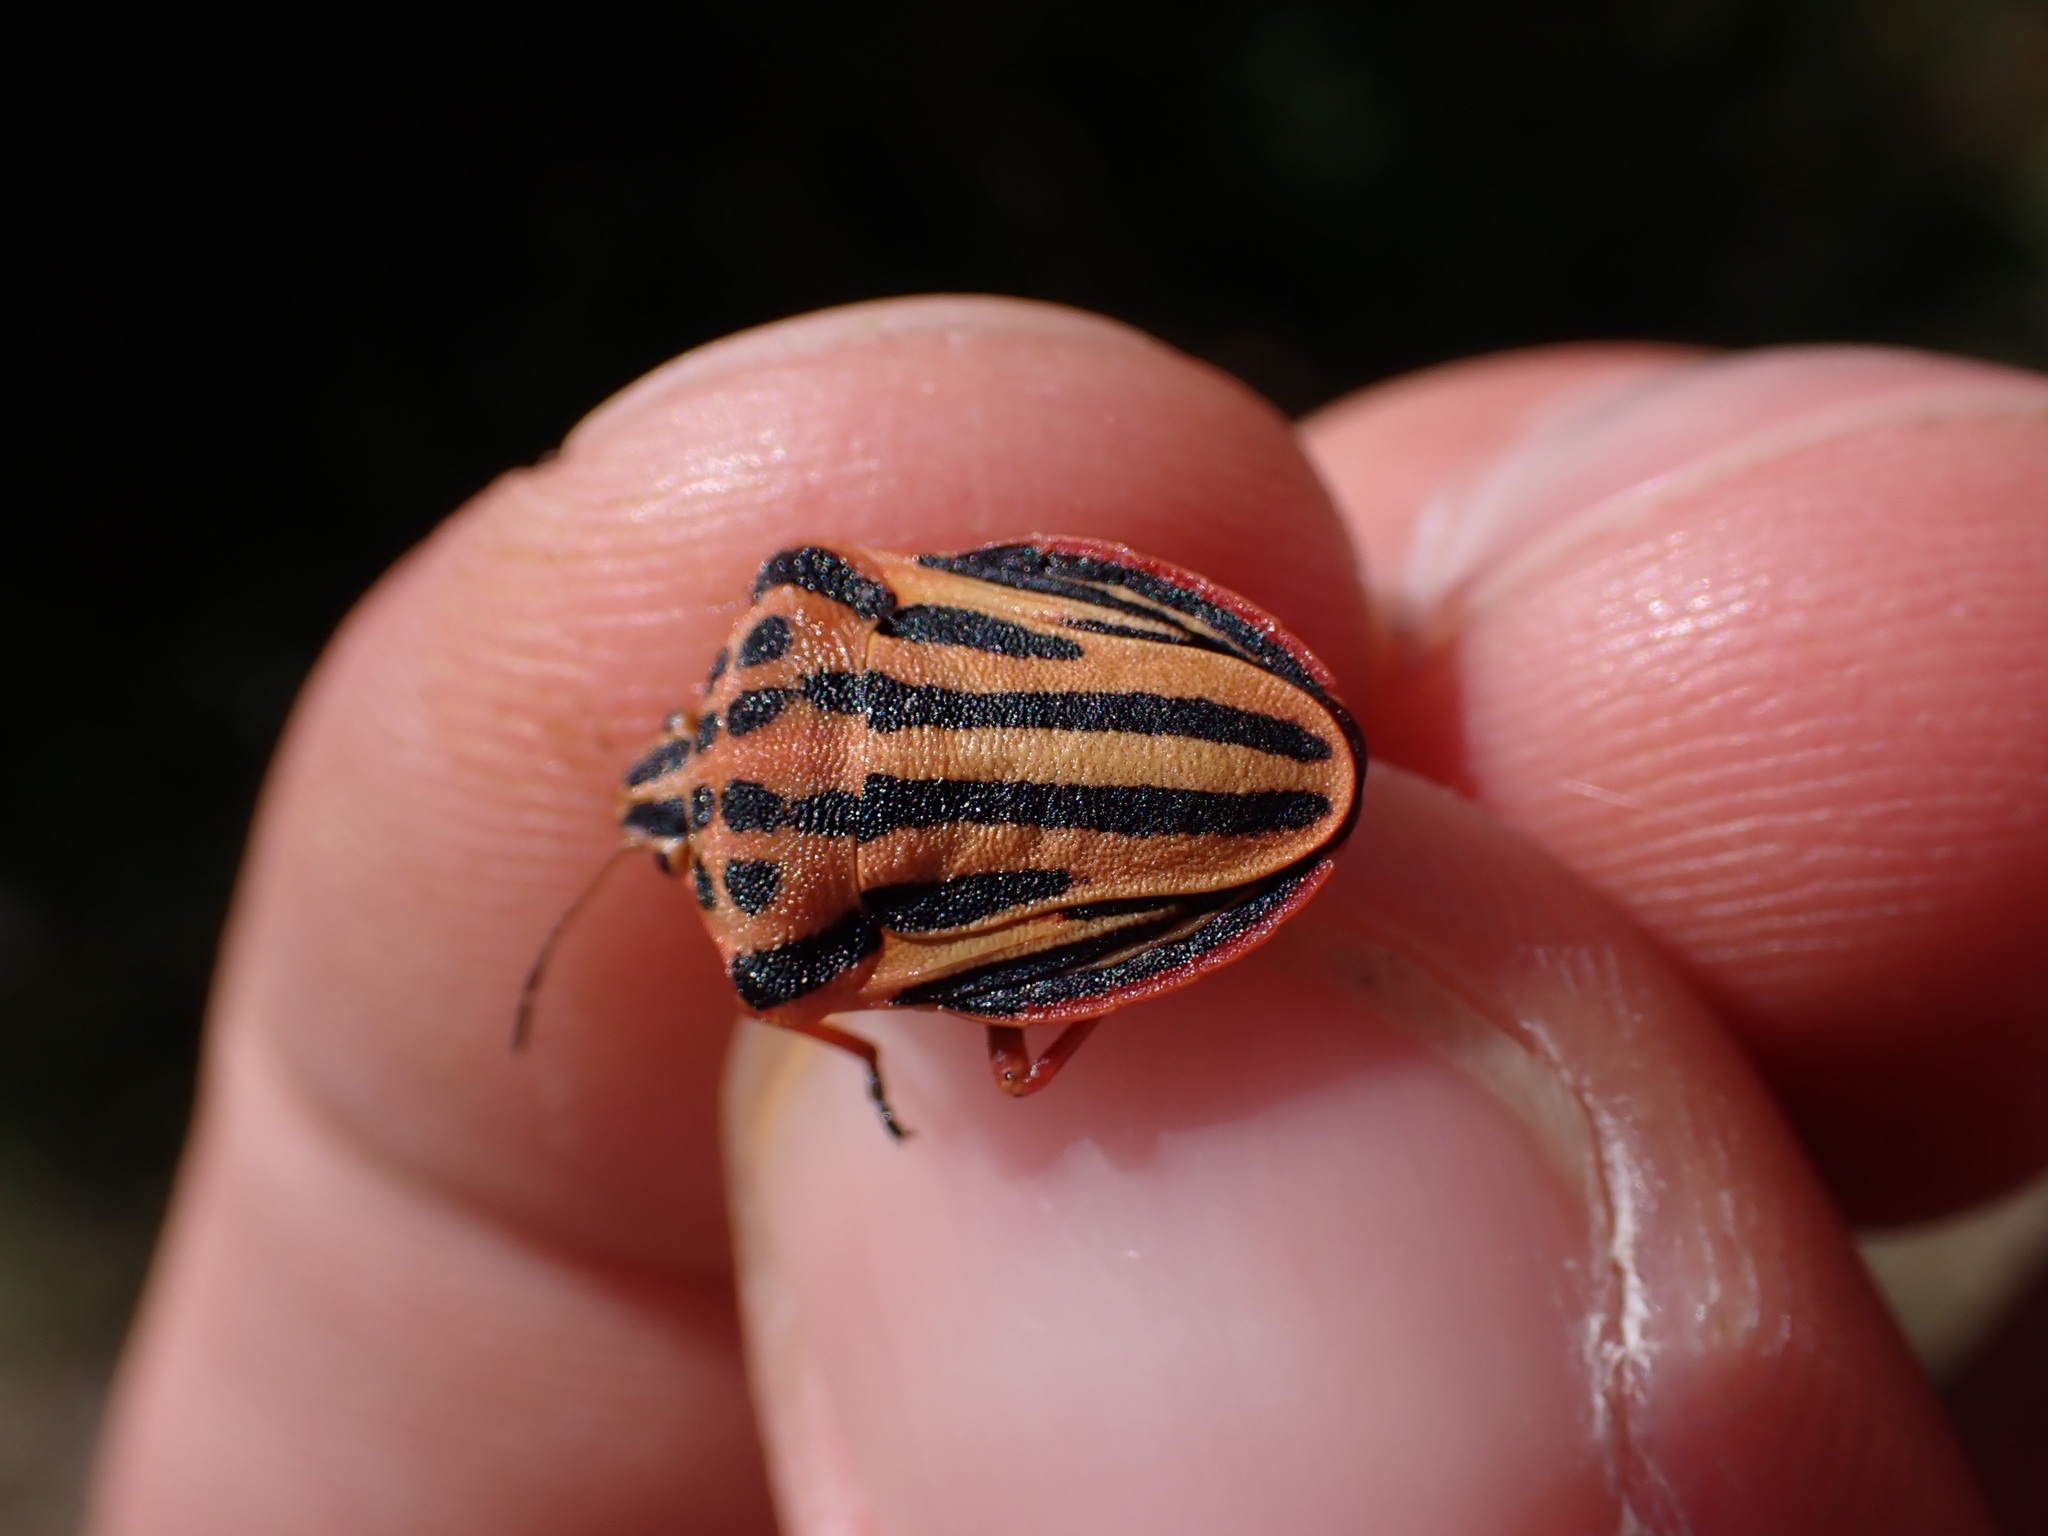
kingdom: Animalia
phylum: Arthropoda
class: Insecta
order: Hemiptera
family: Pentatomidae
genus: Graphosoma
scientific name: Graphosoma semipunctatum
